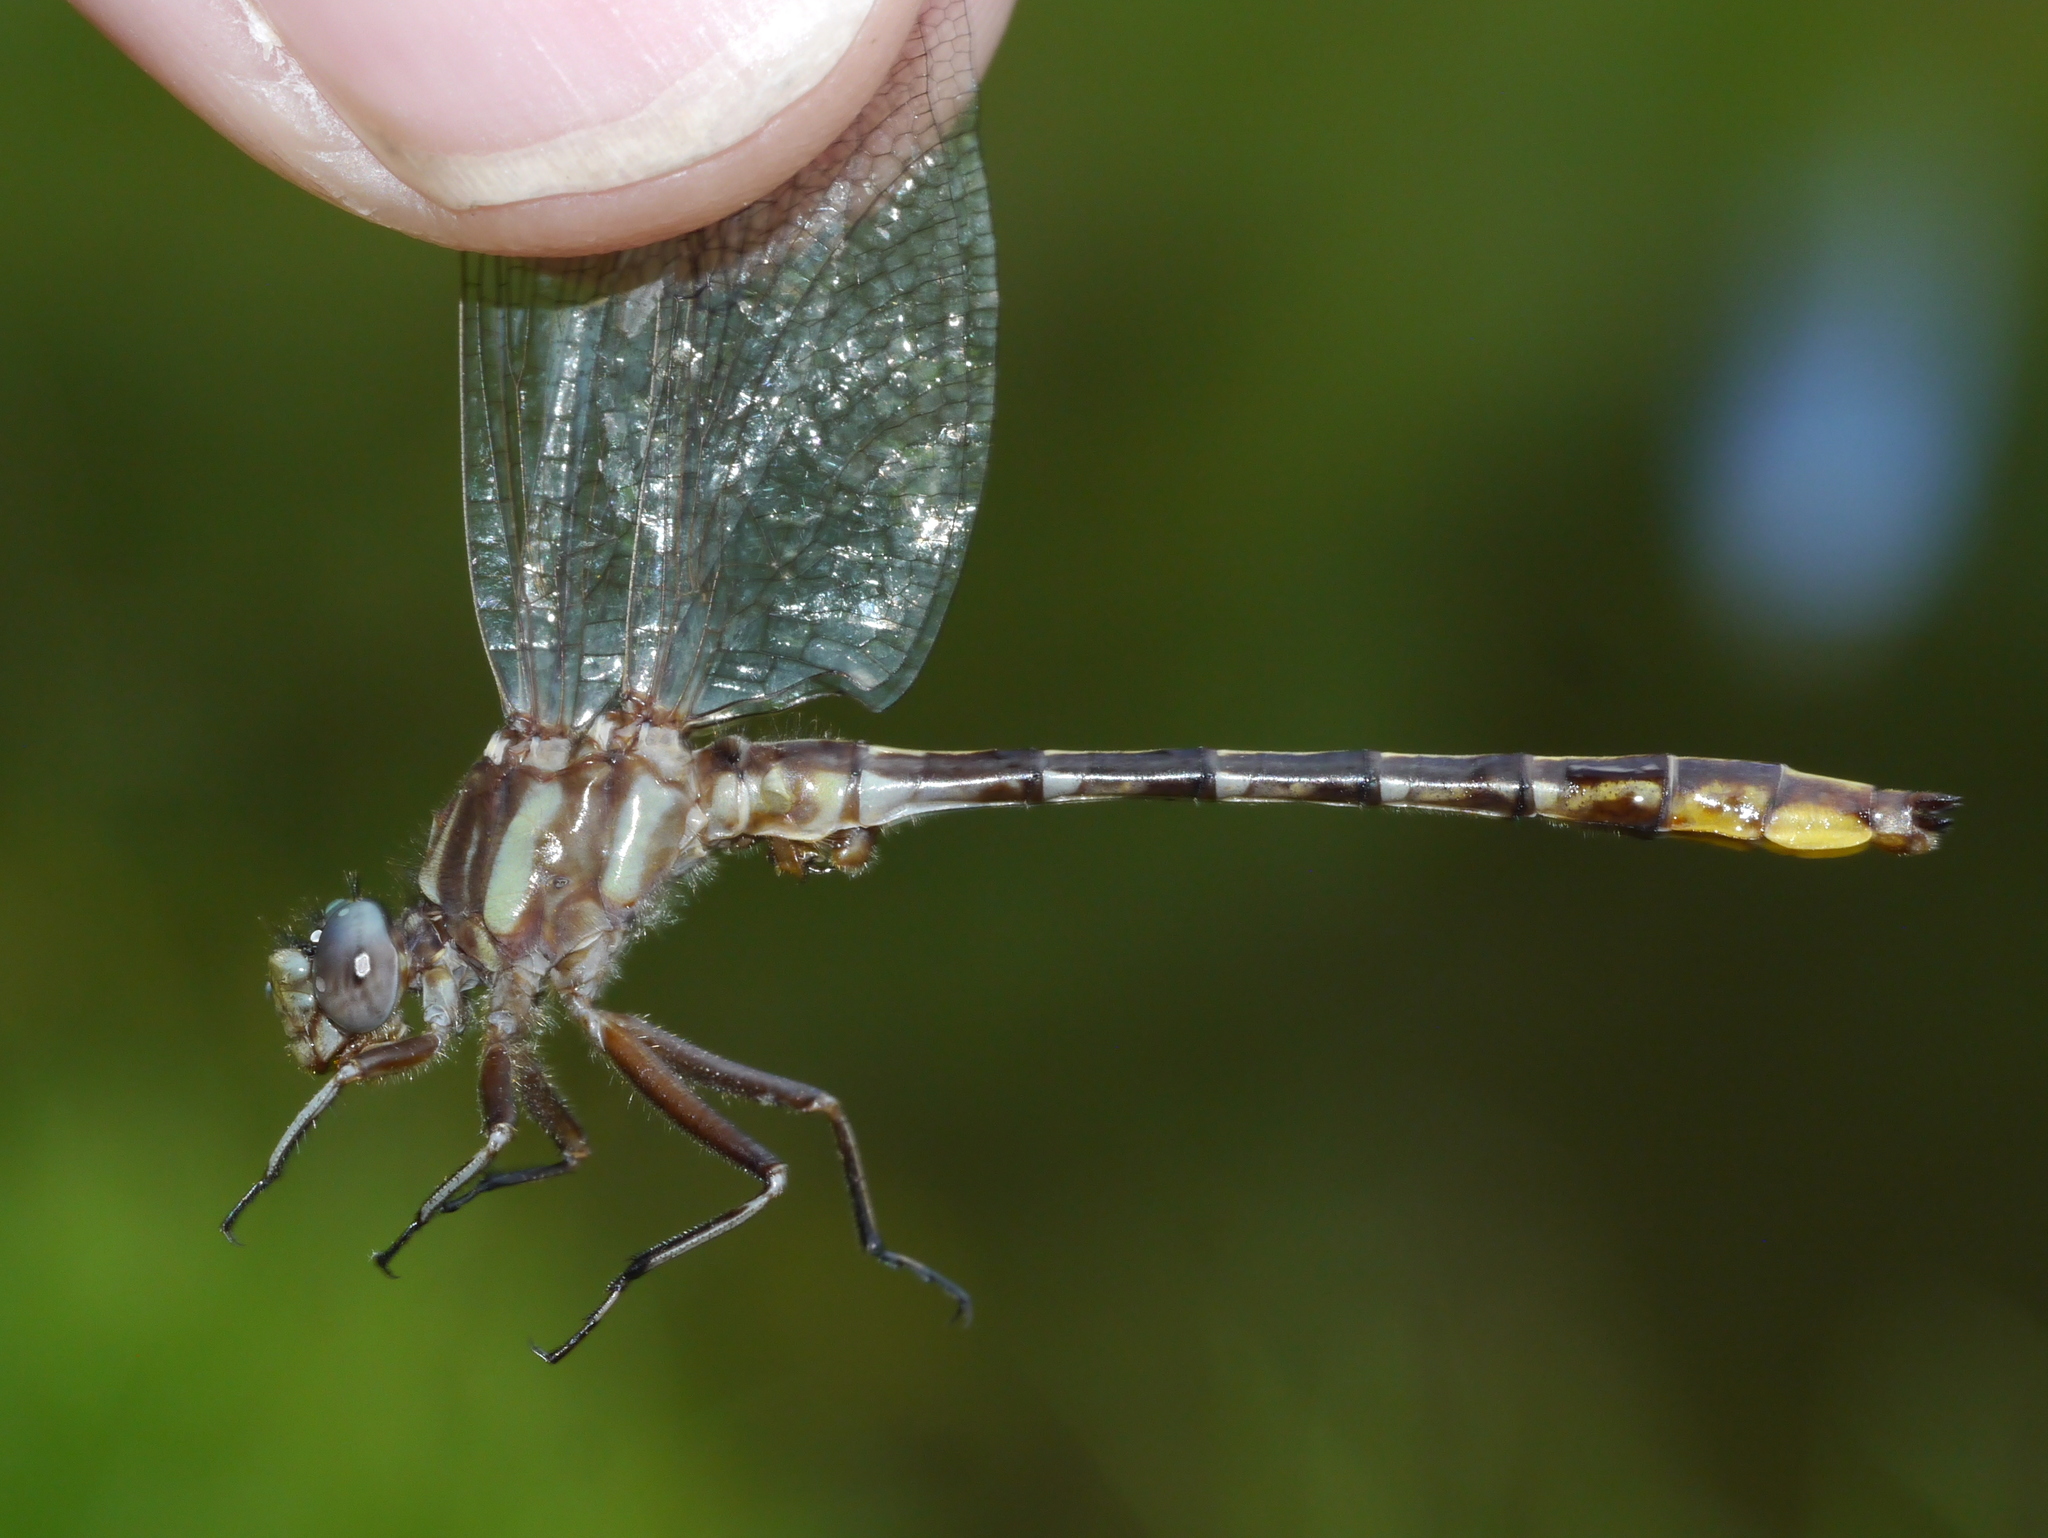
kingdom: Animalia
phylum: Arthropoda
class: Insecta
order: Odonata
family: Gomphidae
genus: Phanogomphus
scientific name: Phanogomphus exilis
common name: Lancet clubtail
